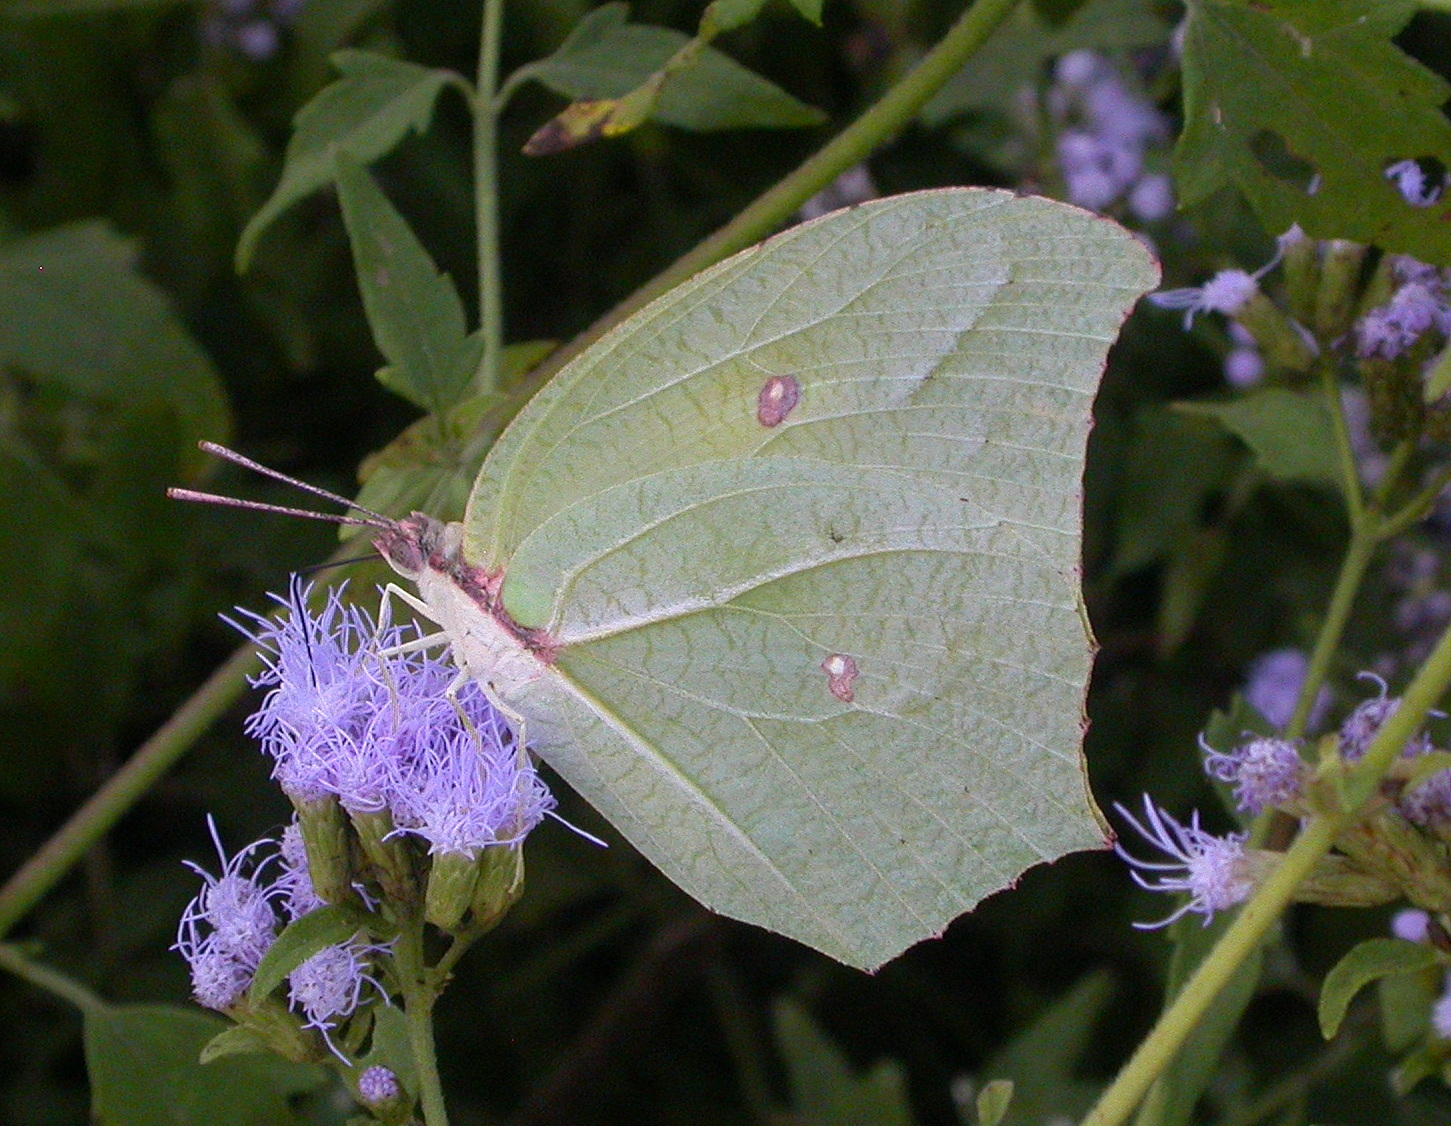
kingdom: Animalia
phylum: Arthropoda
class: Insecta
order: Lepidoptera
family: Pieridae
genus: Anteos
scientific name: Anteos maerula
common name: Angled sulphur
